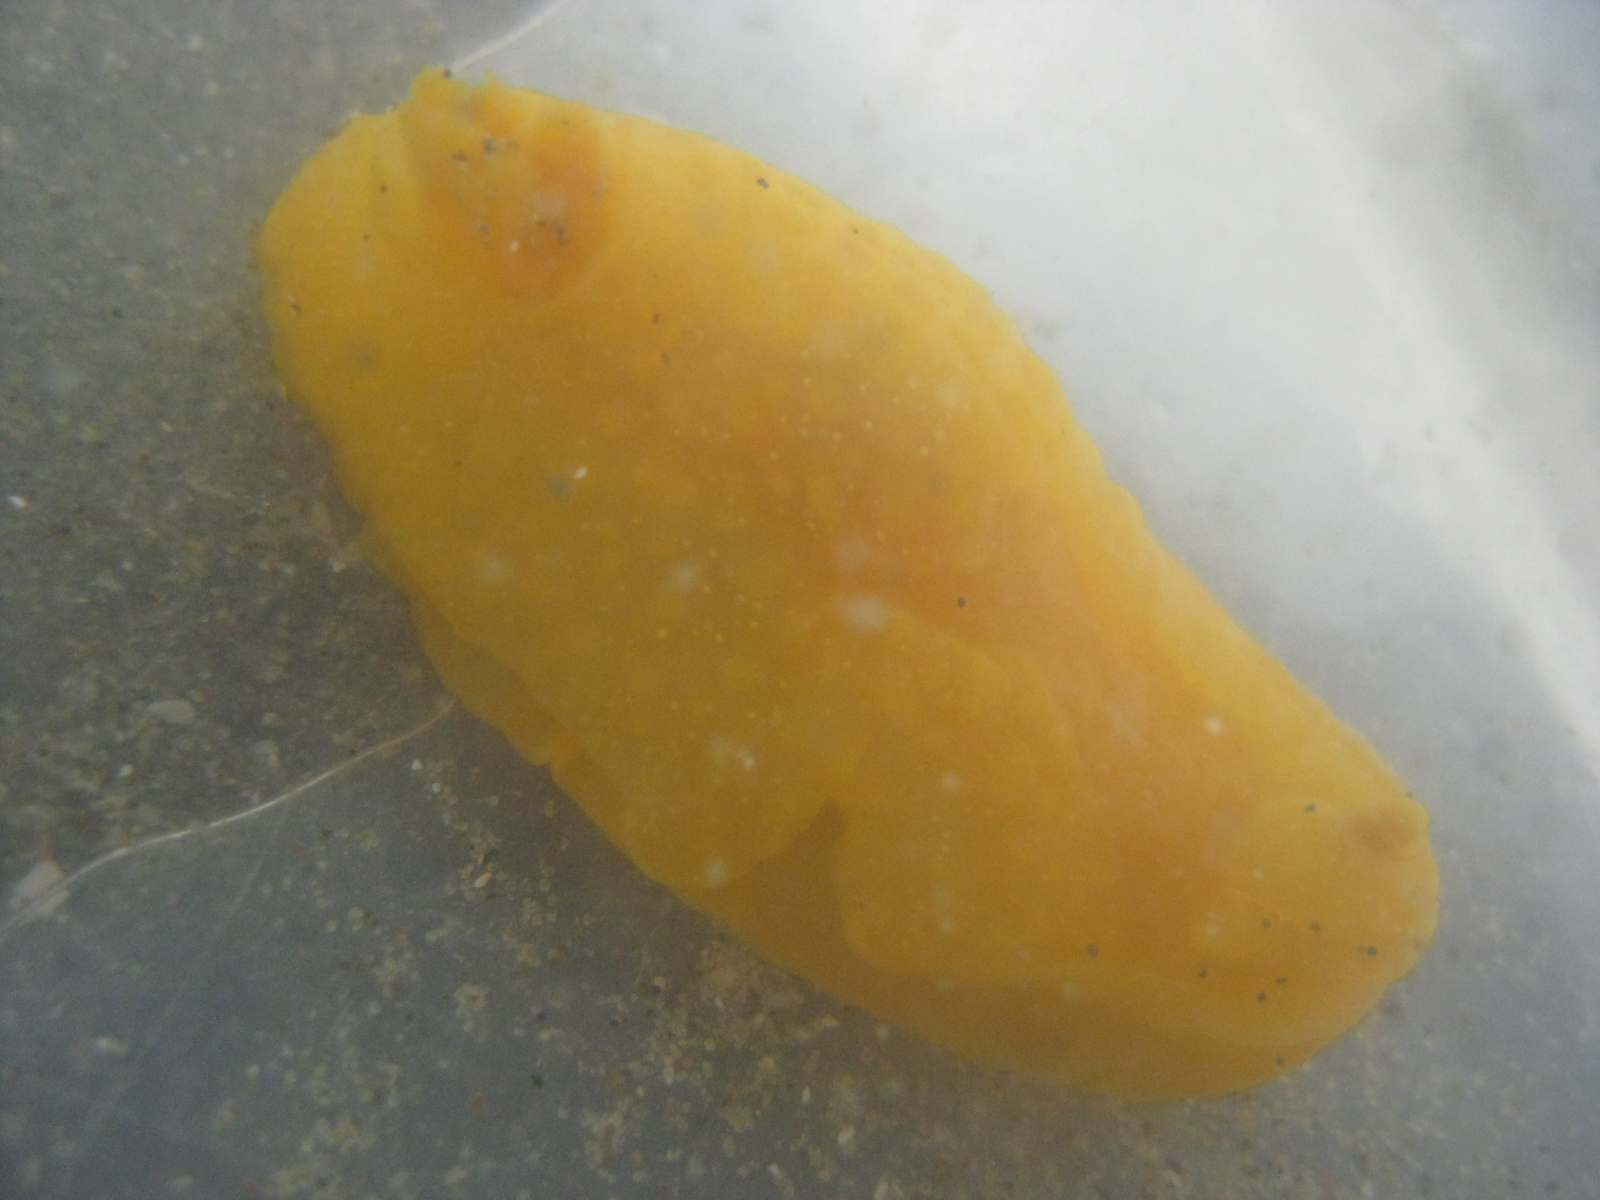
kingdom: Animalia
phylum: Mollusca
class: Gastropoda
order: Nudibranchia
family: Dendrodorididae
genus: Dendrodoris
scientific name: Dendrodoris citrina
